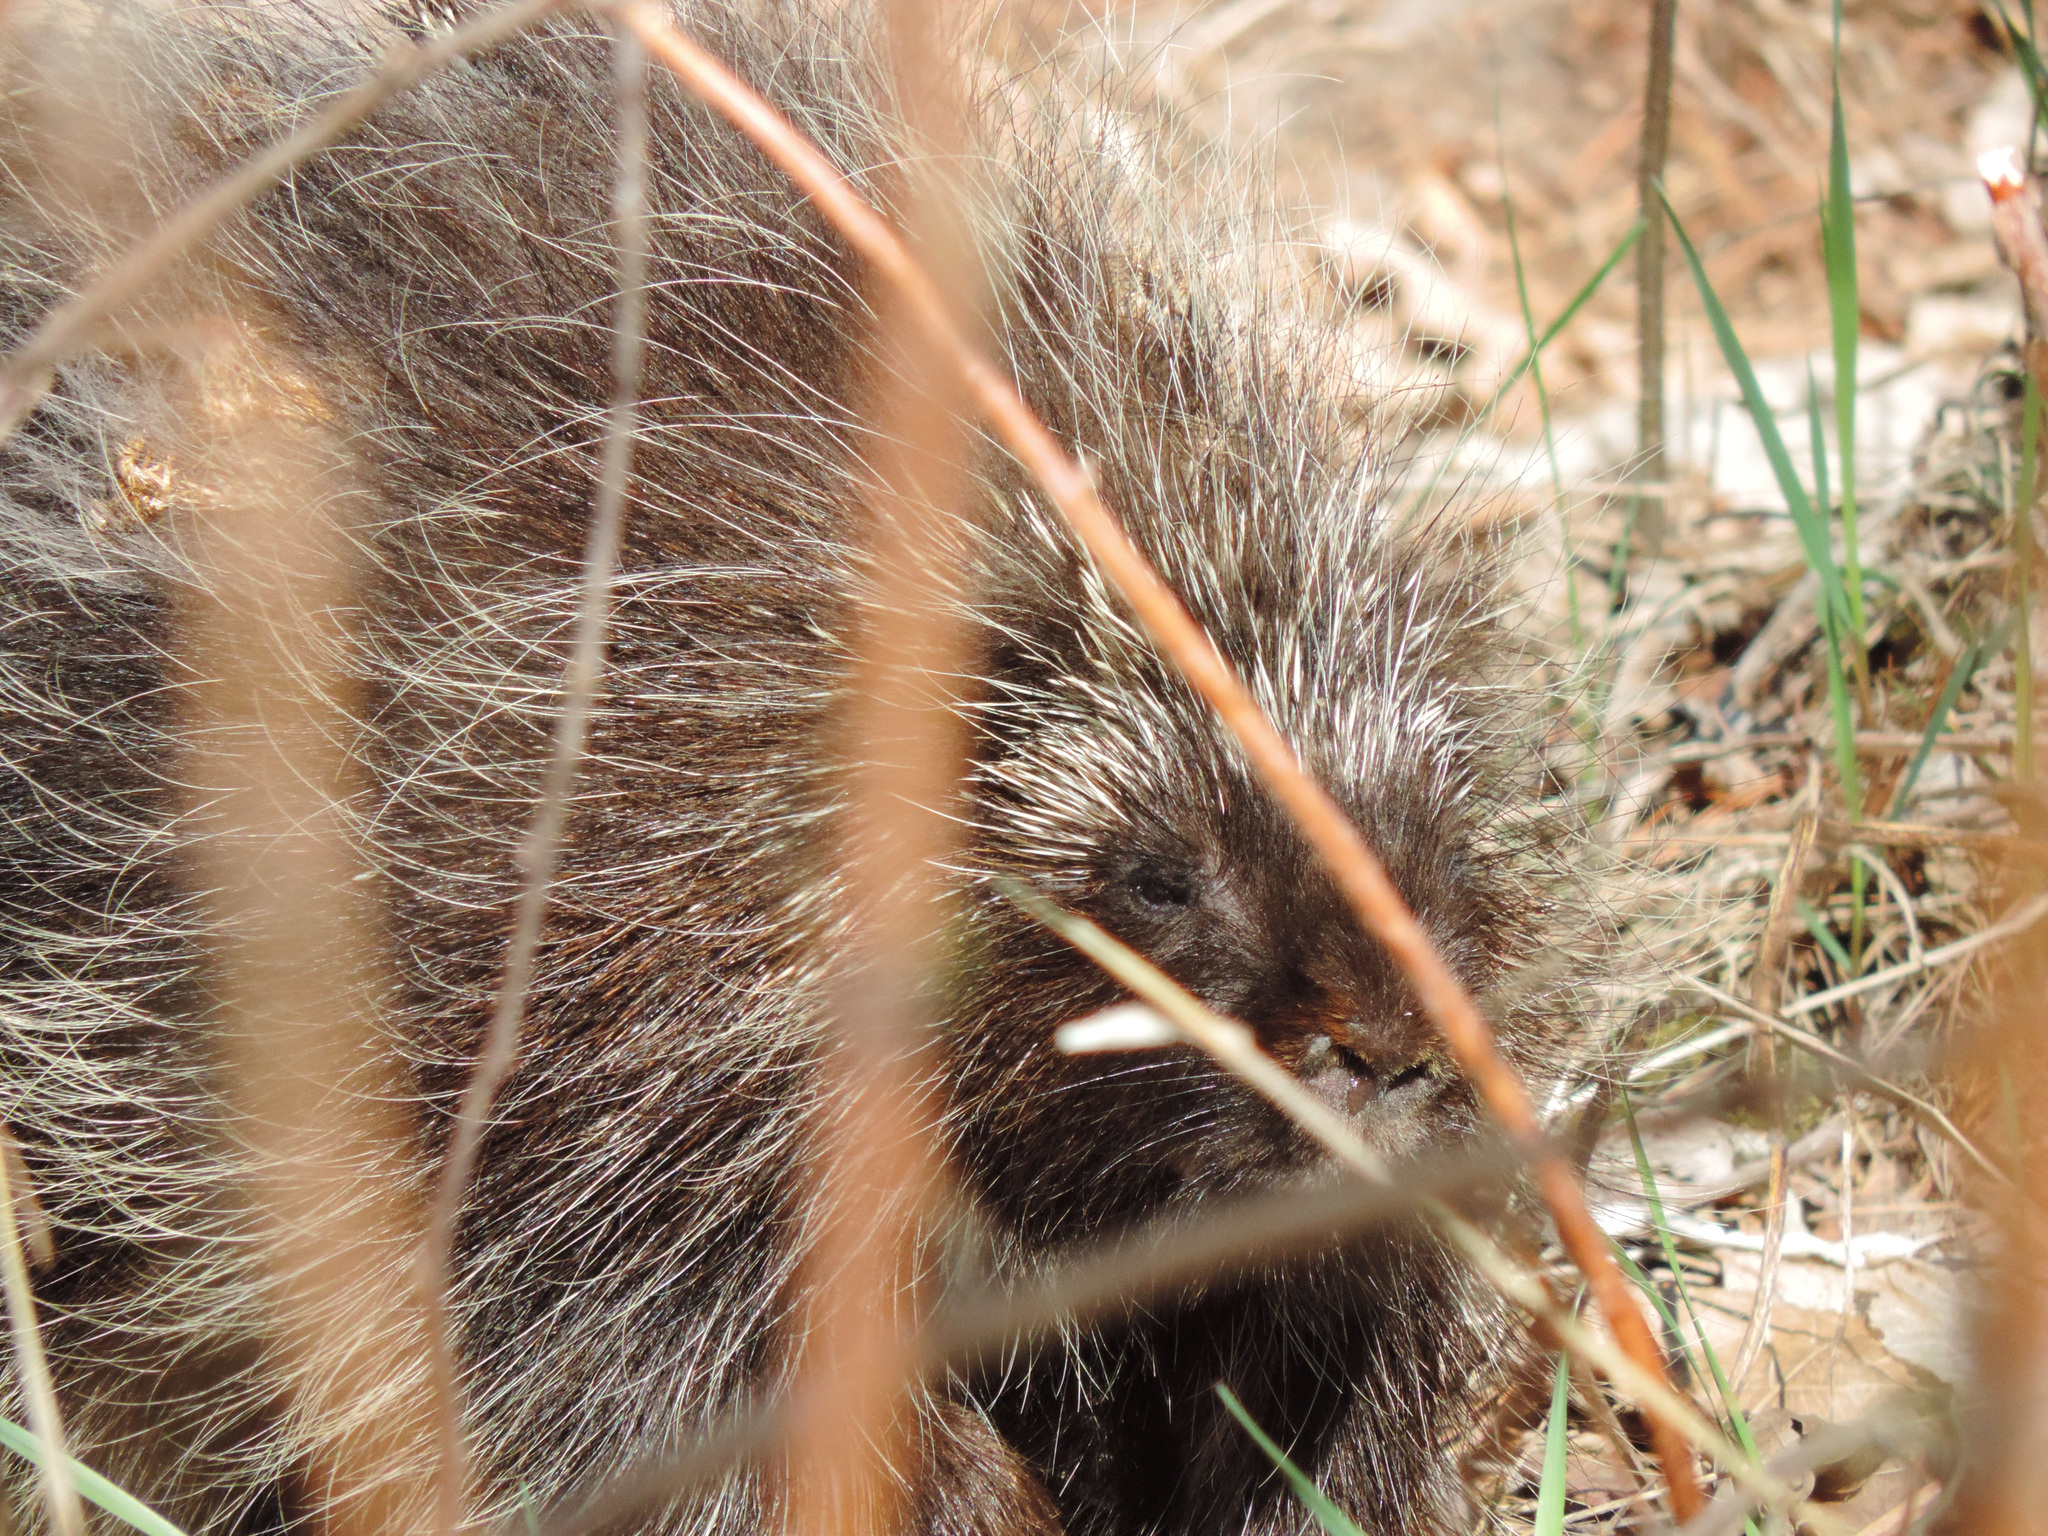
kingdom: Animalia
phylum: Chordata
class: Mammalia
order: Rodentia
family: Erethizontidae
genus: Erethizon
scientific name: Erethizon dorsatus
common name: North american porcupine
